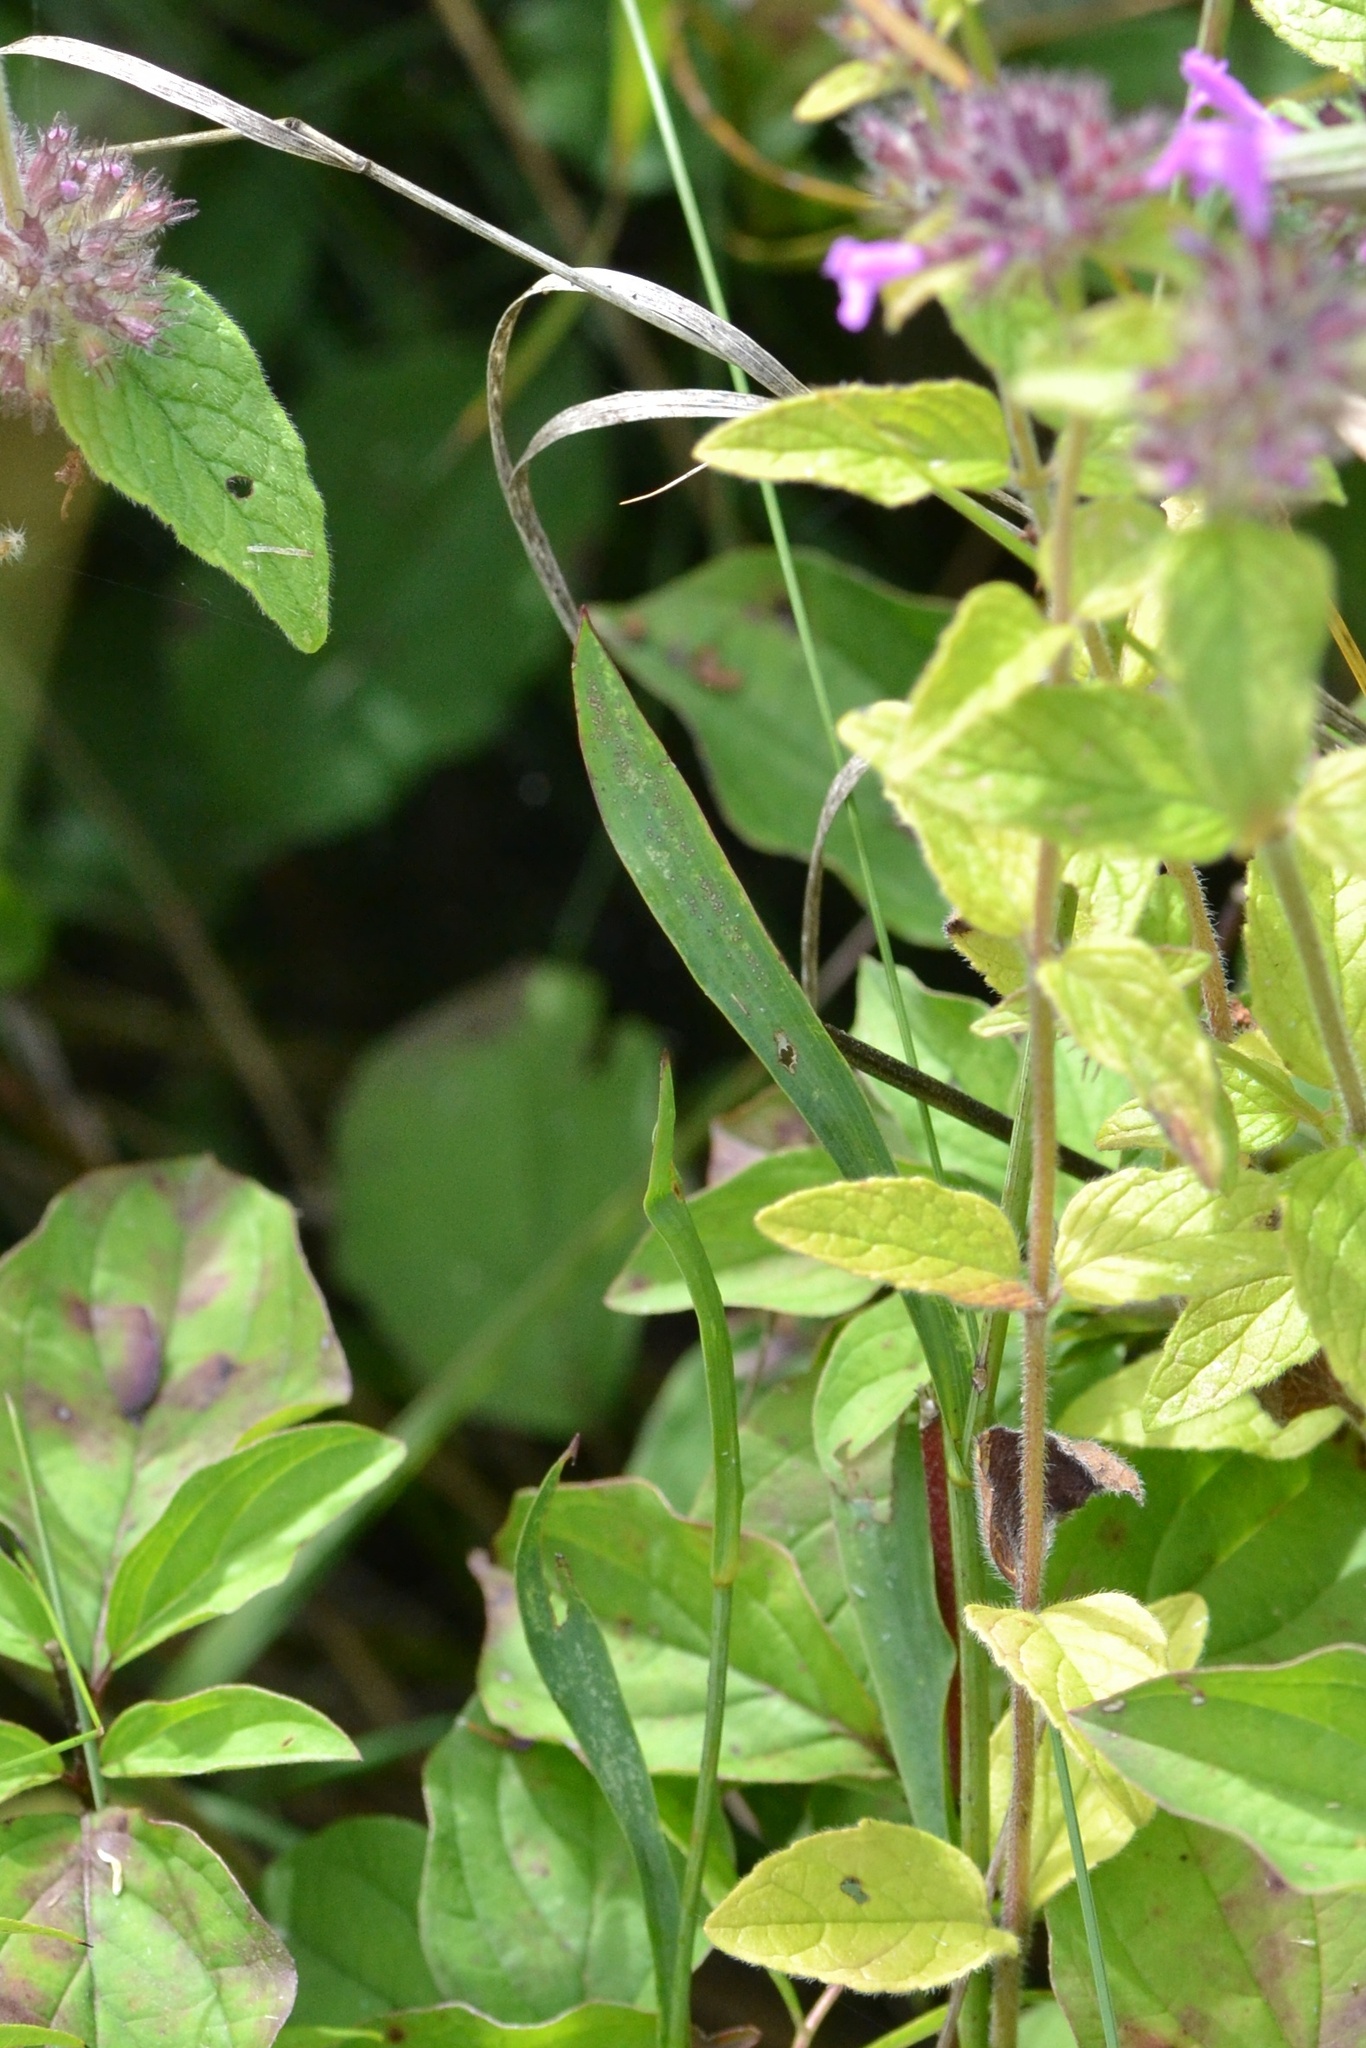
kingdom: Plantae
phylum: Tracheophyta
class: Magnoliopsida
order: Lamiales
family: Lamiaceae
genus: Clinopodium
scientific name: Clinopodium vulgare
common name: Wild basil
